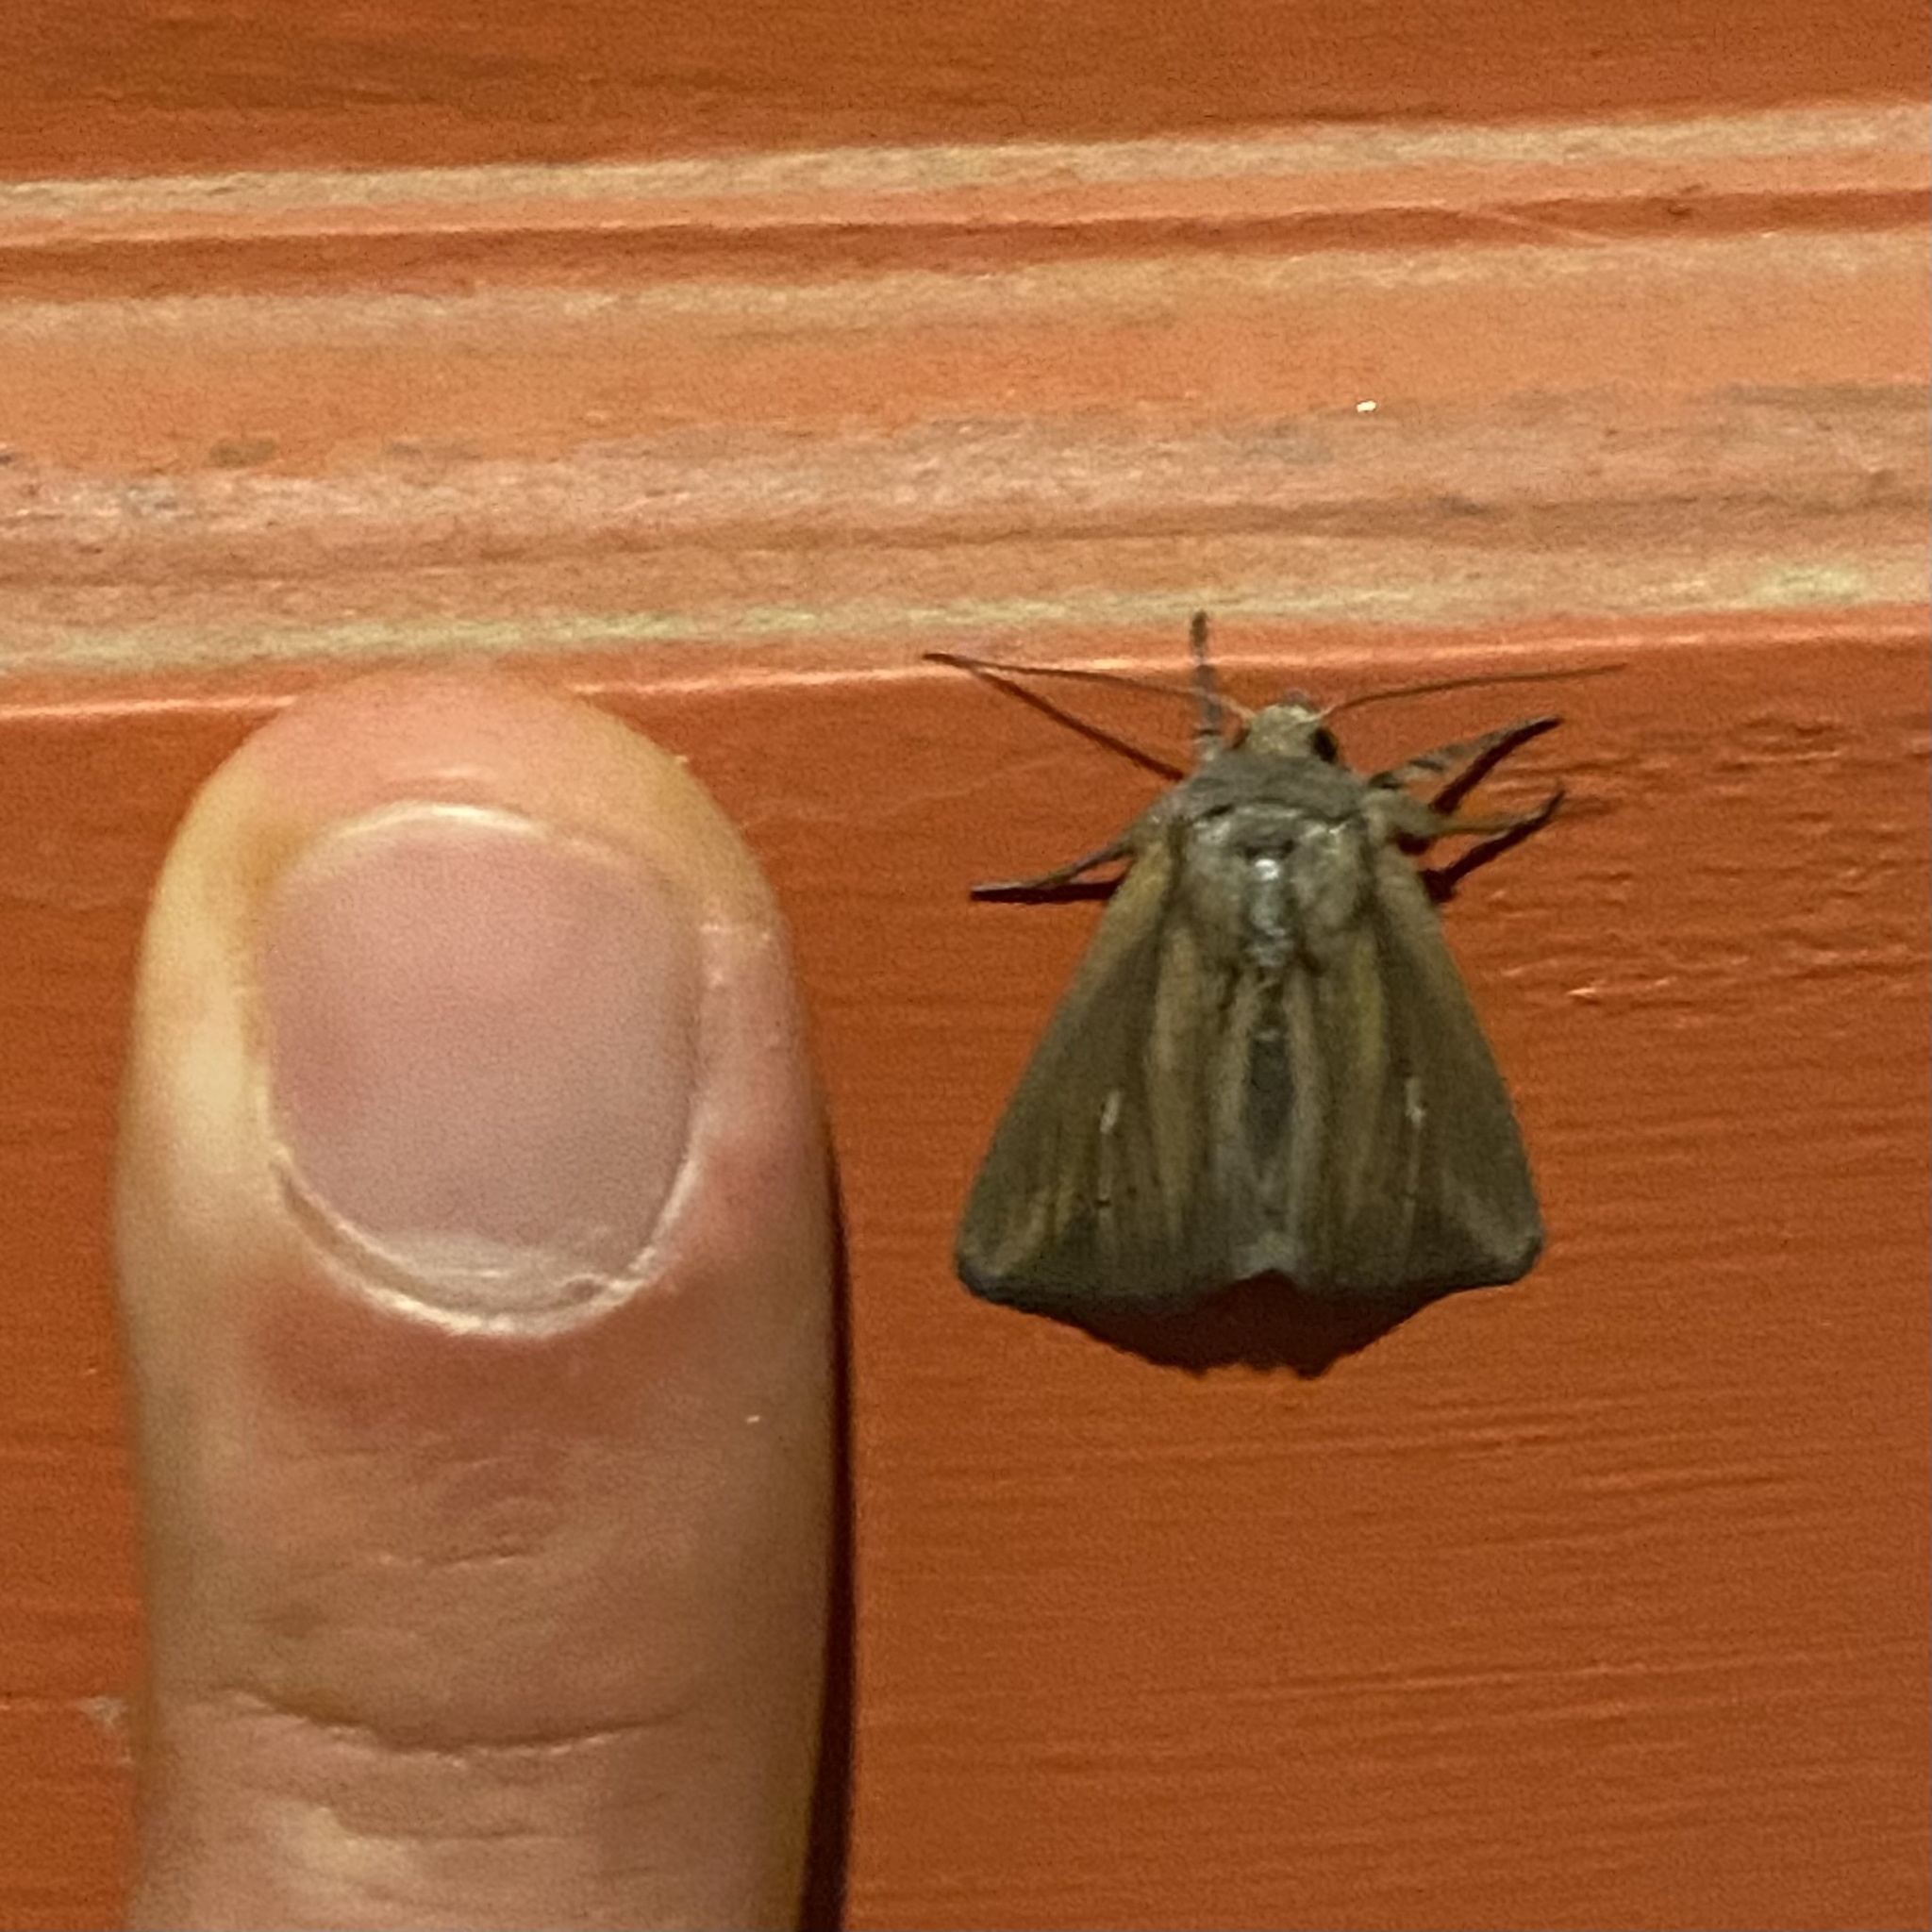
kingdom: Animalia
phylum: Arthropoda
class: Insecta
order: Lepidoptera
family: Noctuidae
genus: Leucania
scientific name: Leucania imperfecta
